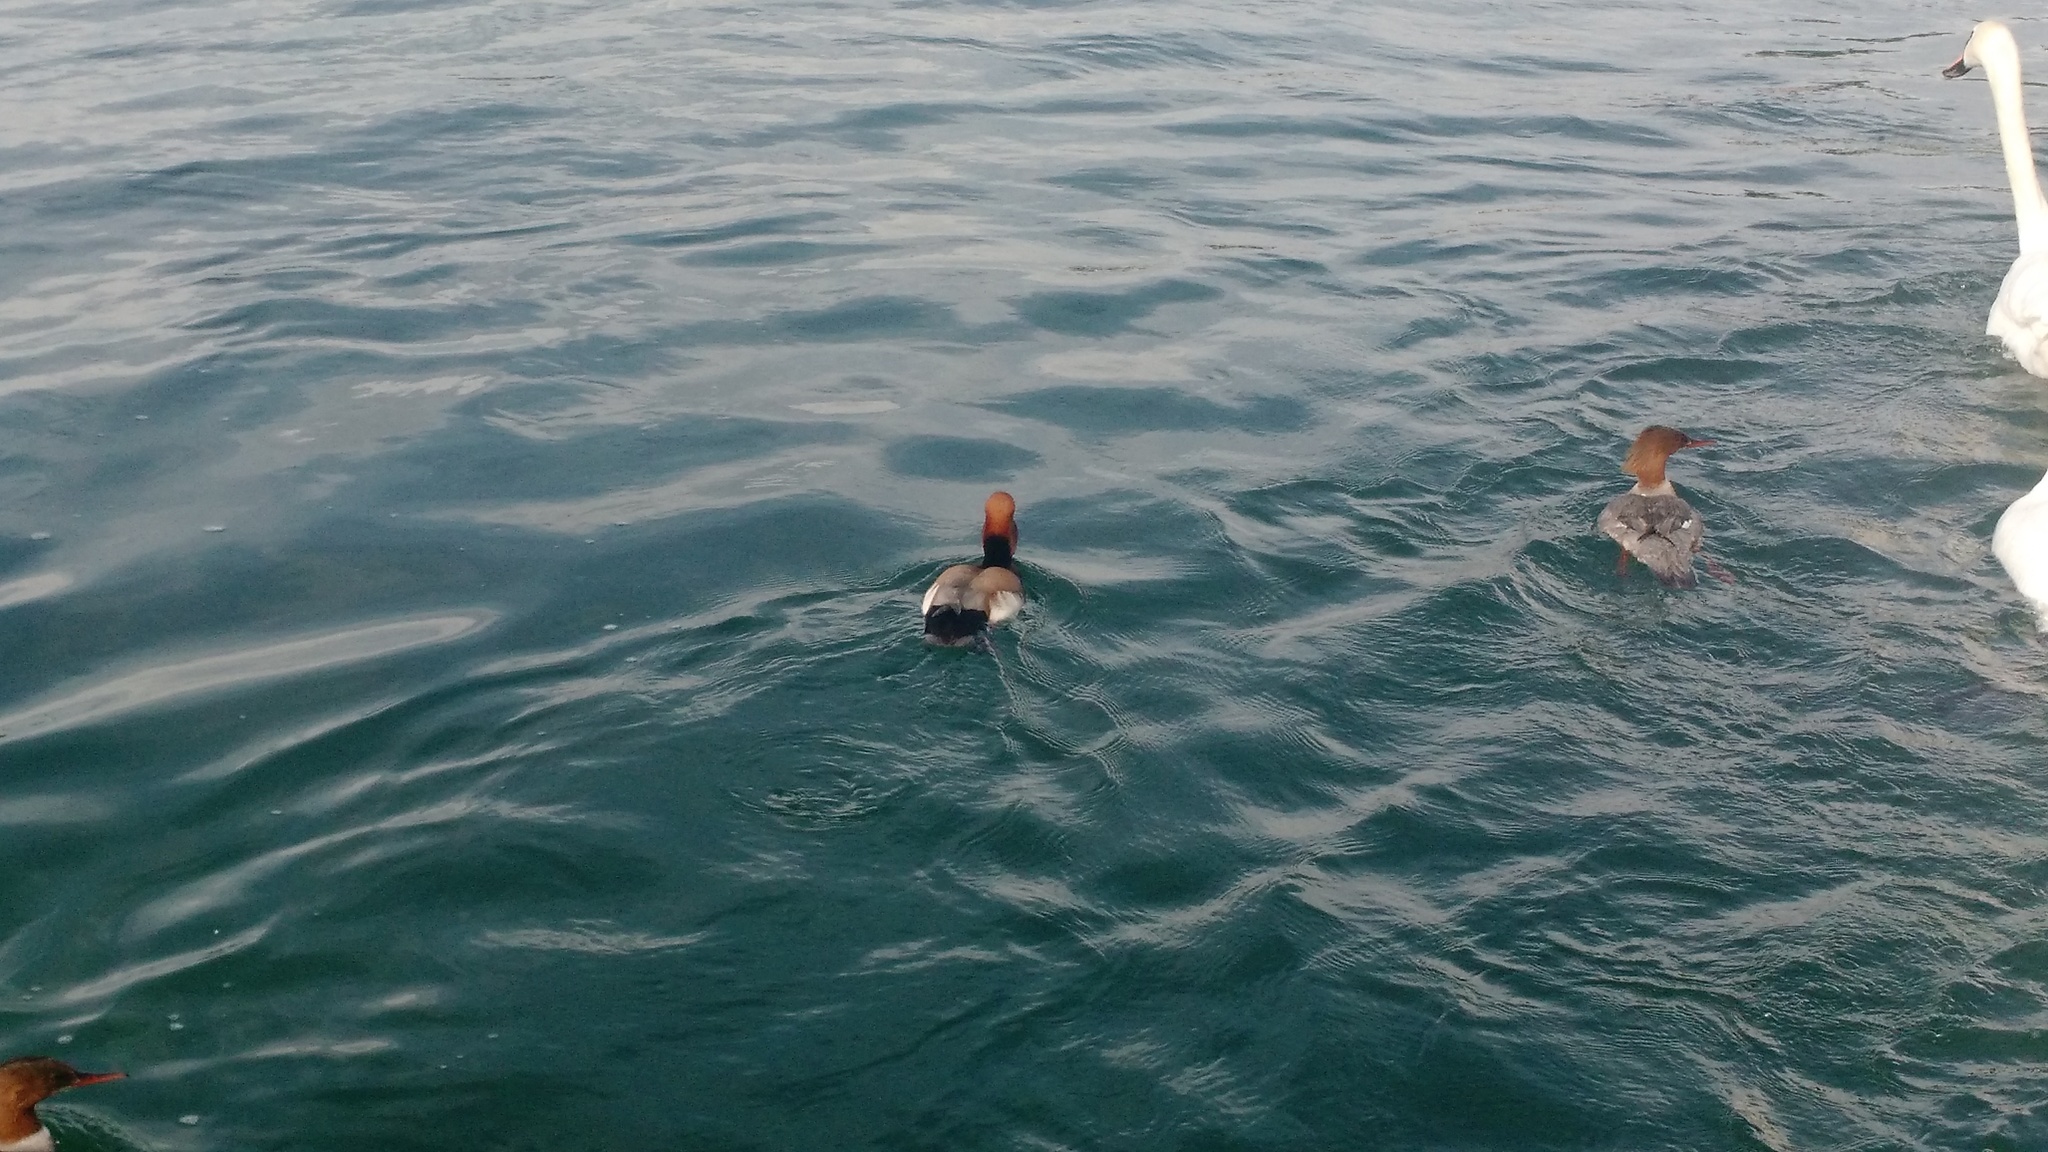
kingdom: Animalia
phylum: Chordata
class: Aves
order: Anseriformes
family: Anatidae
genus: Mergus
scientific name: Mergus merganser
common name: Common merganser
